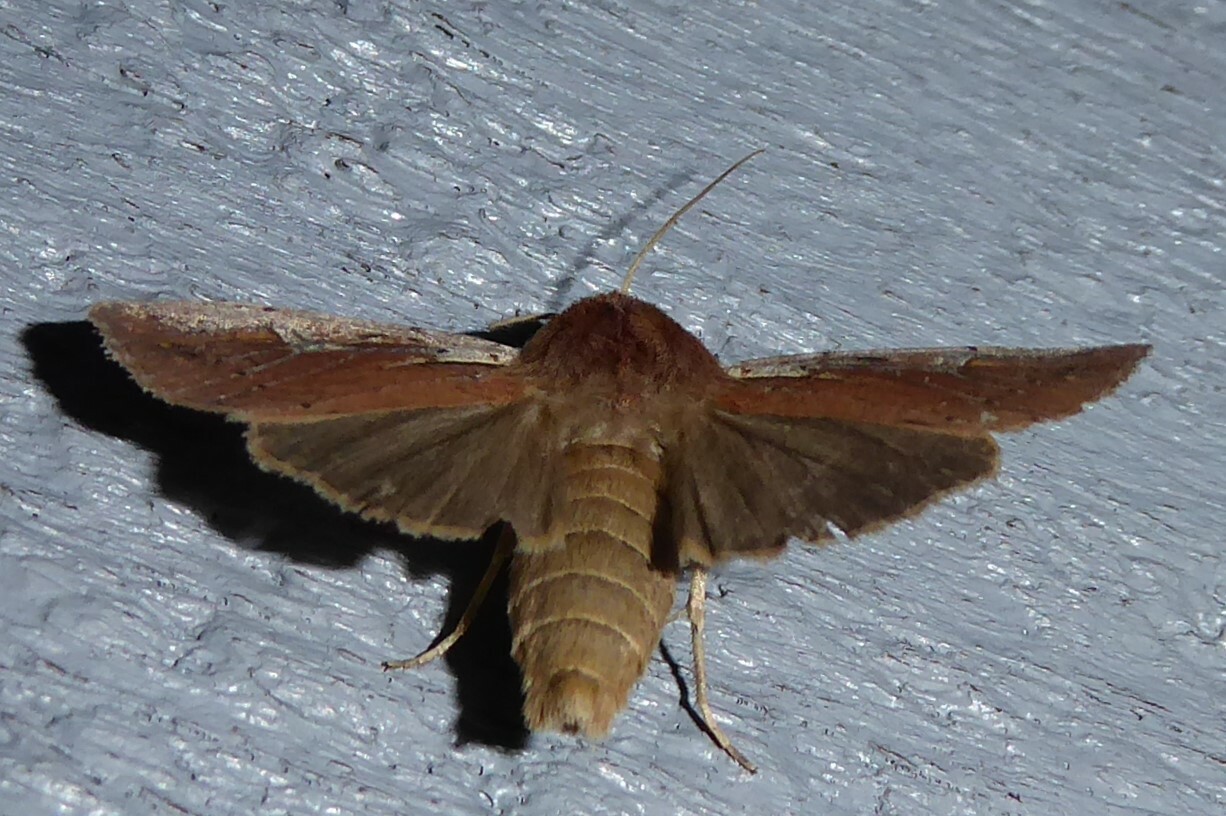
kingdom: Animalia
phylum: Arthropoda
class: Insecta
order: Lepidoptera
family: Noctuidae
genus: Ichneutica
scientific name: Ichneutica atristriga
